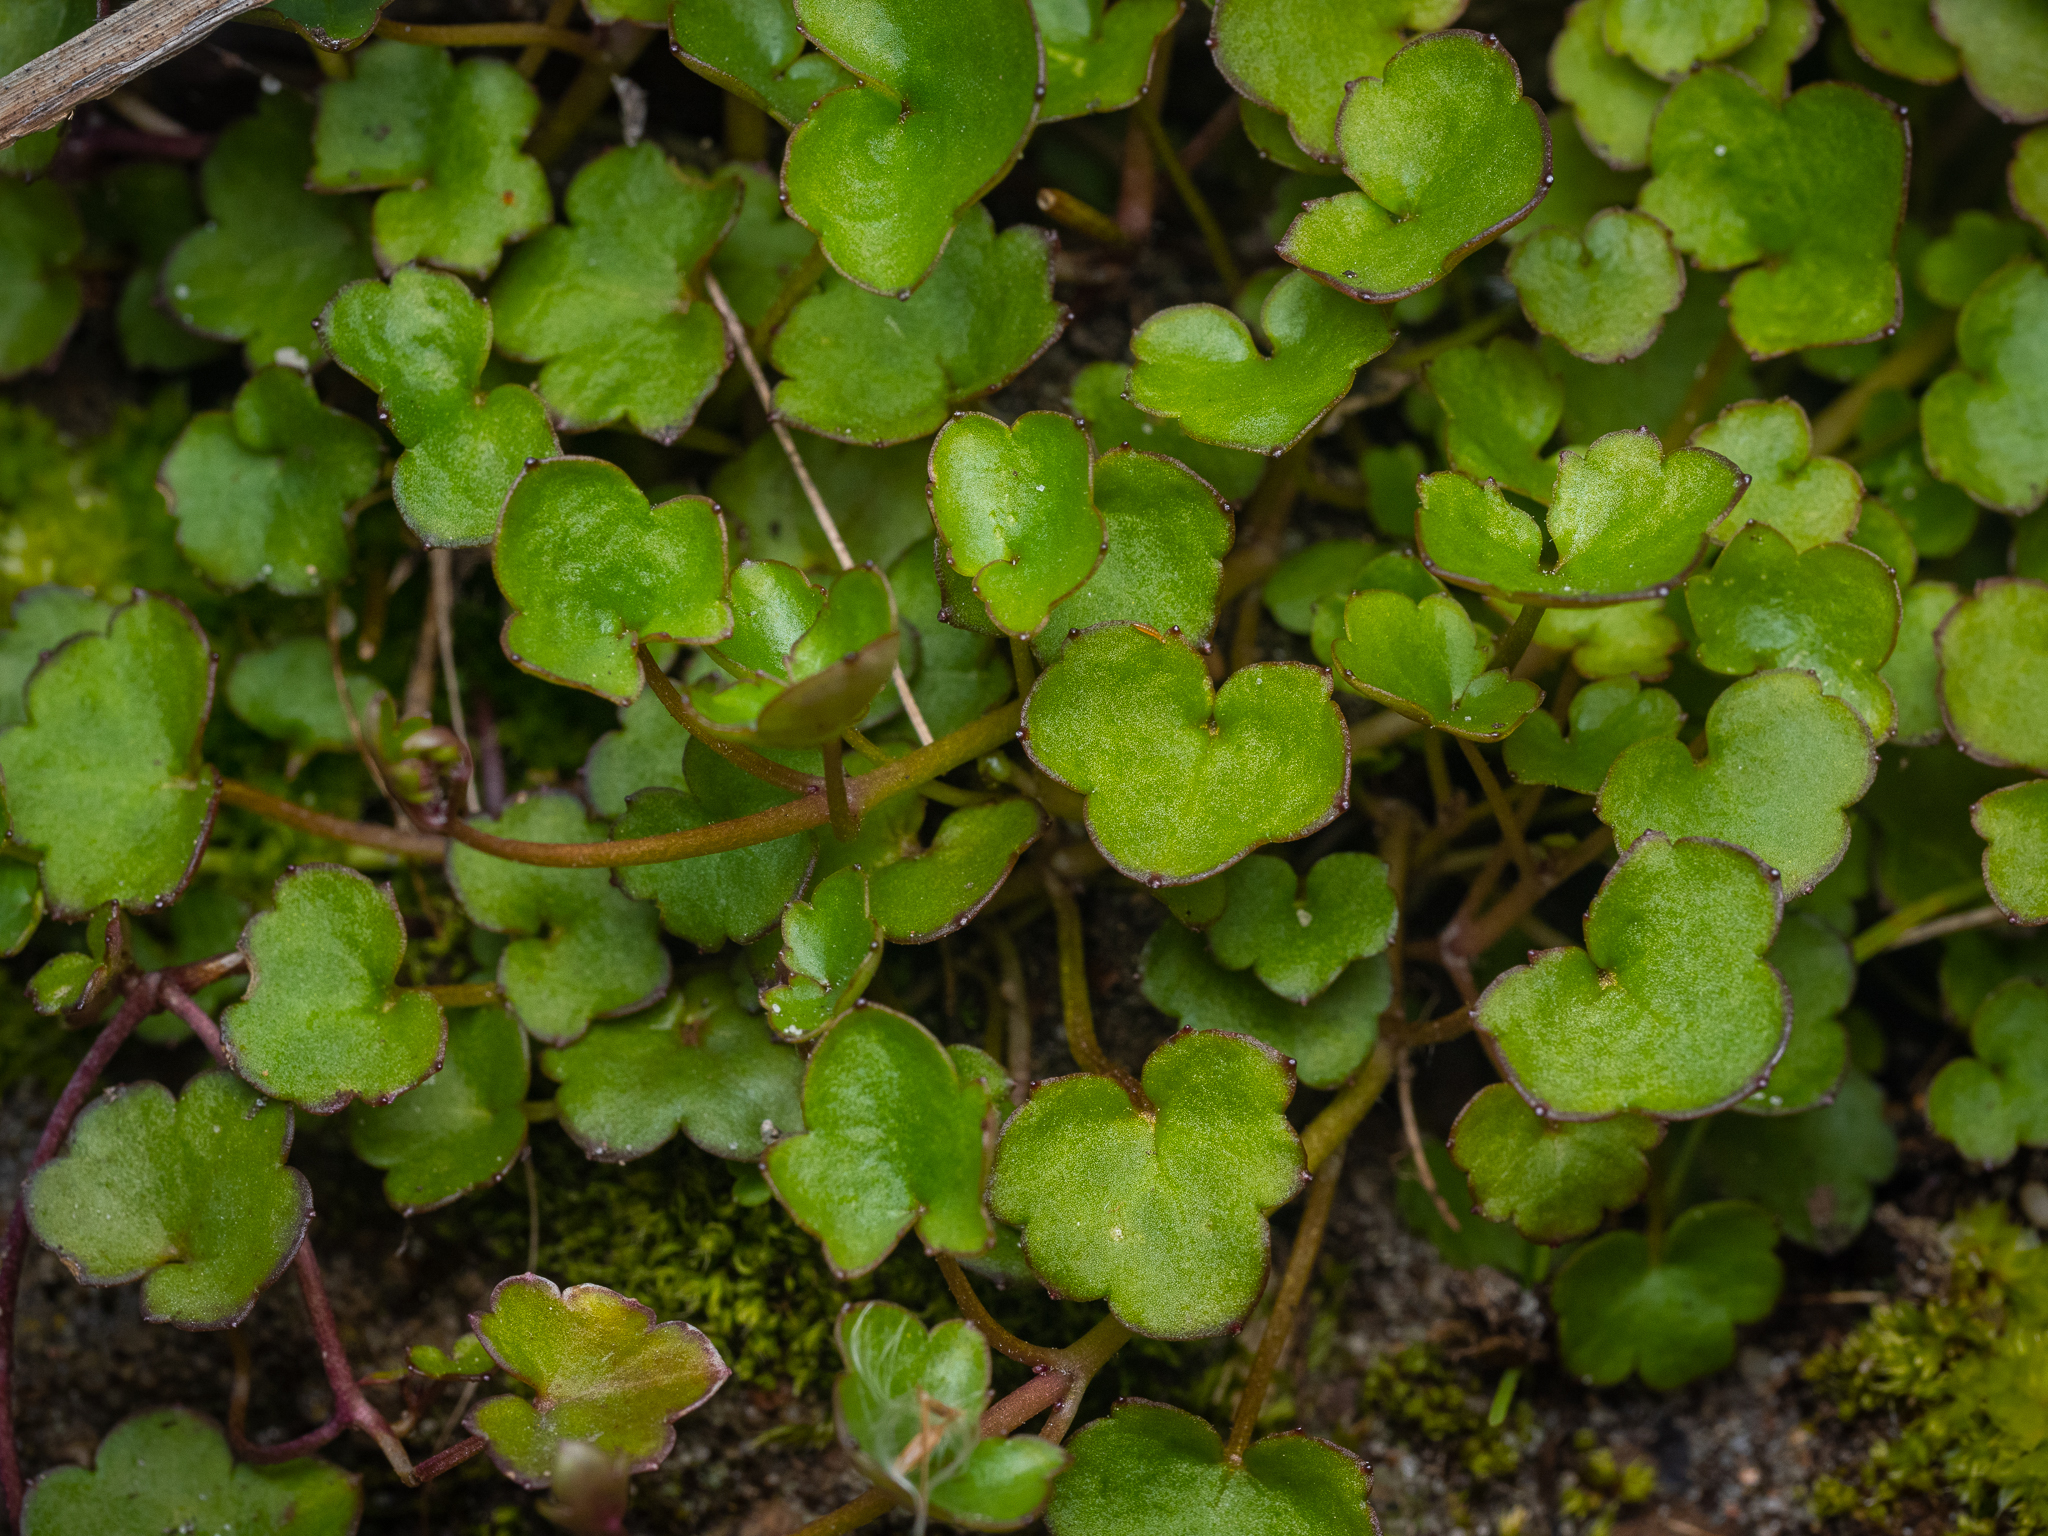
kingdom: Plantae
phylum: Tracheophyta
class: Magnoliopsida
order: Lamiales
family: Plantaginaceae
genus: Cymbalaria
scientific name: Cymbalaria muralis
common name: Ivy-leaved toadflax
